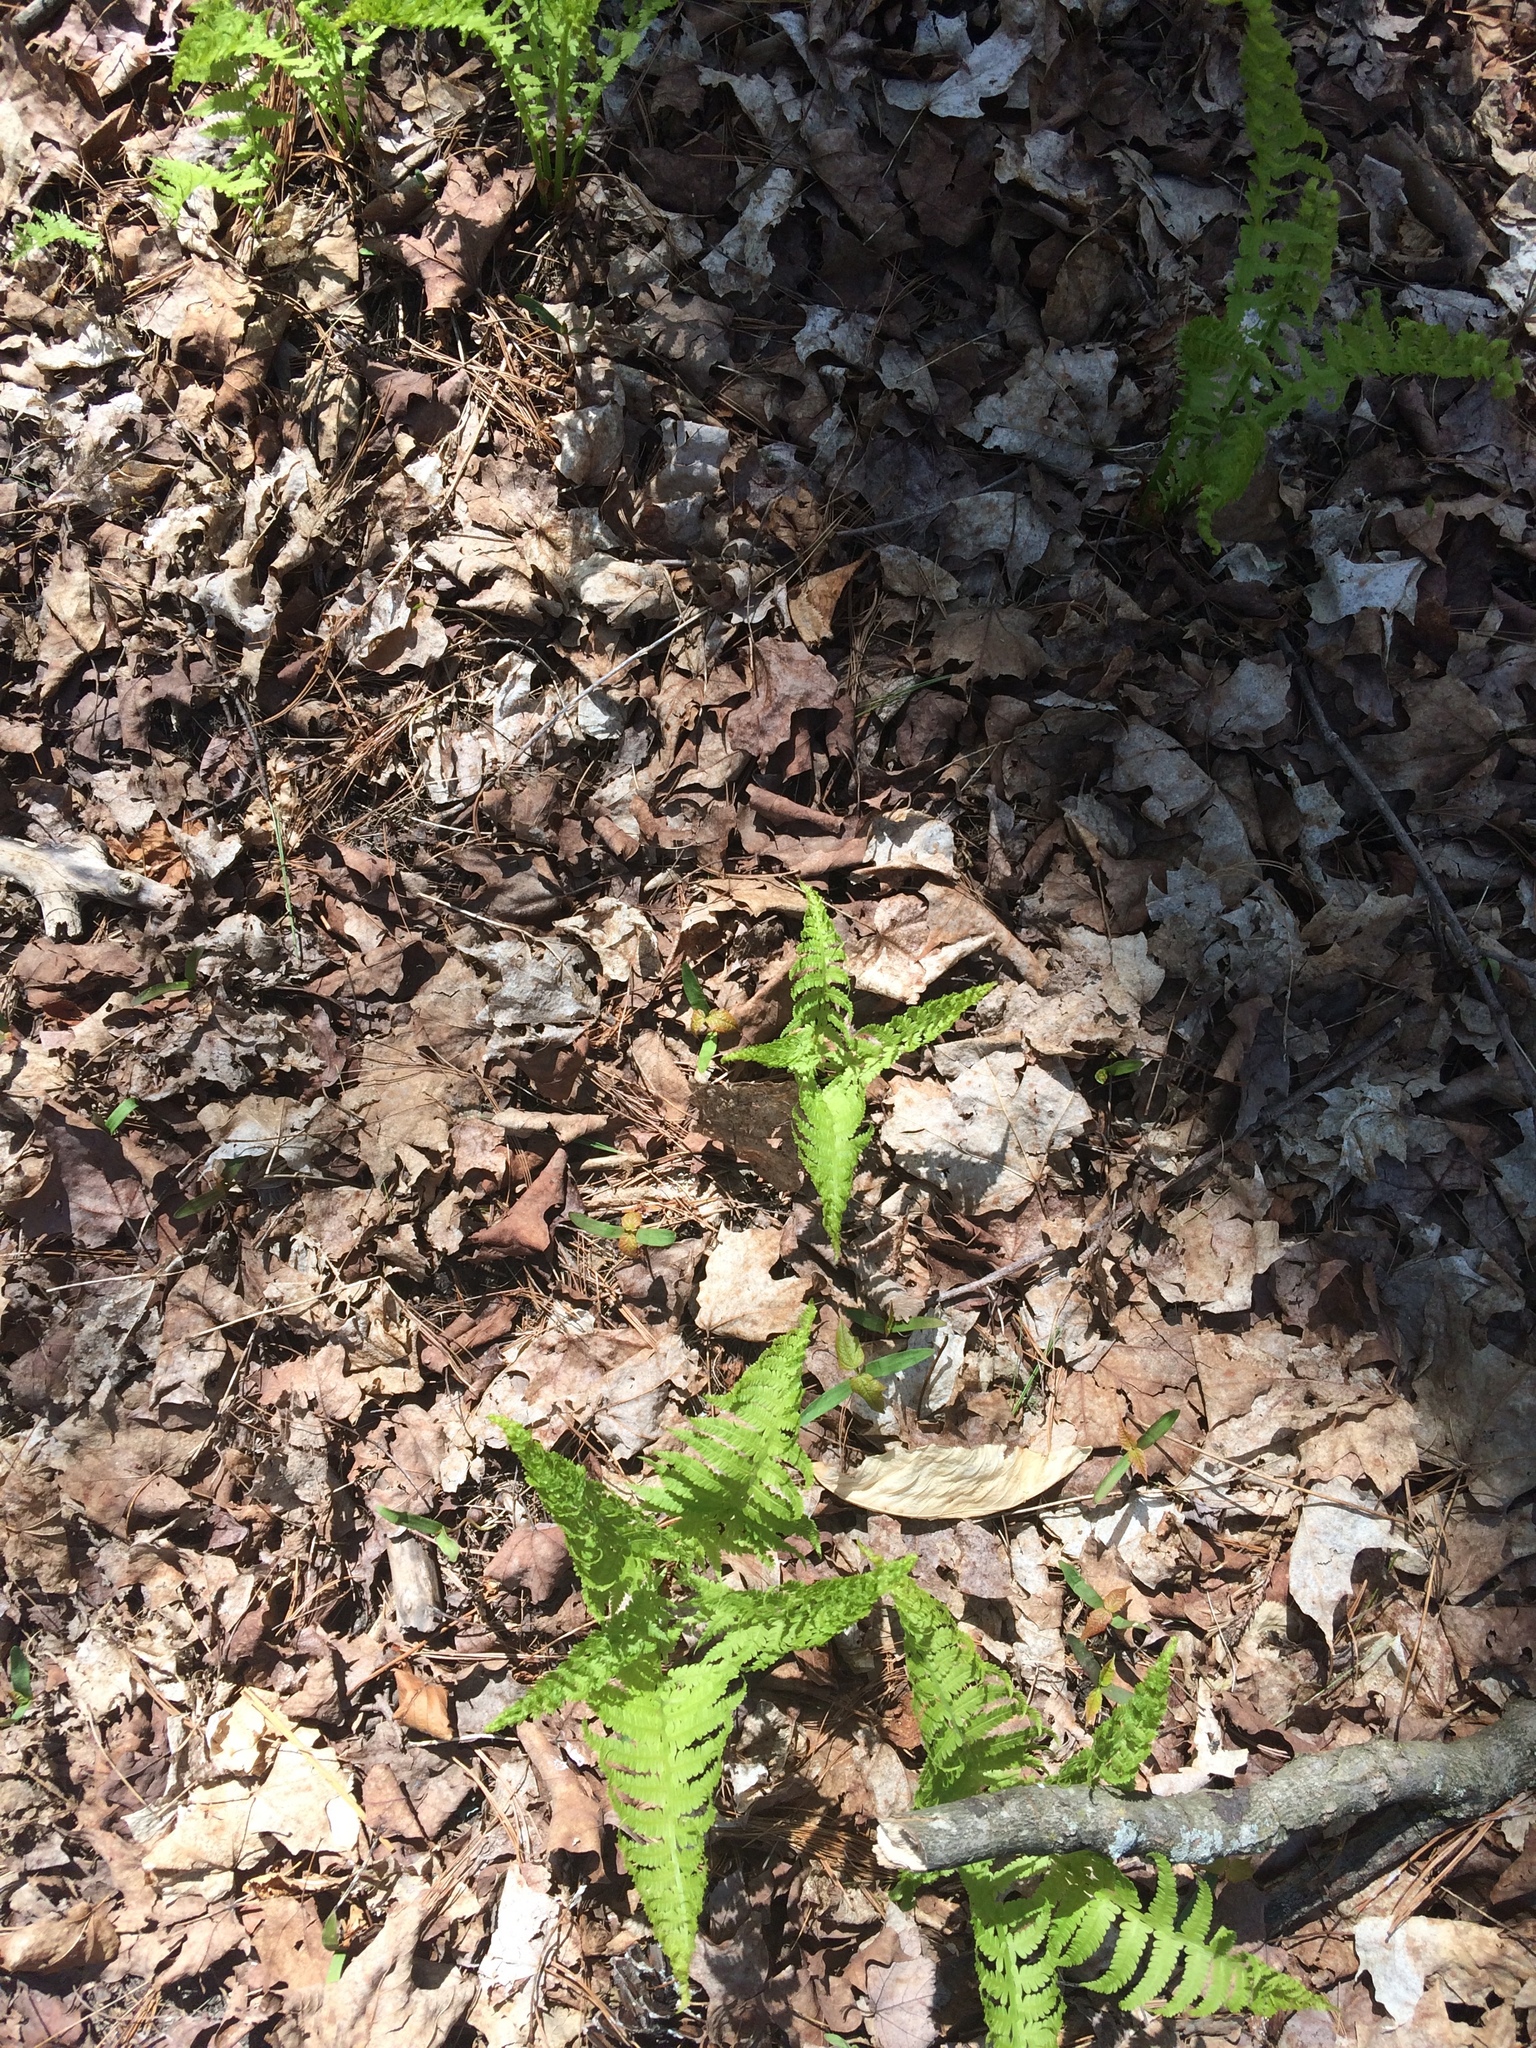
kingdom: Plantae
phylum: Tracheophyta
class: Polypodiopsida
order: Polypodiales
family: Onocleaceae
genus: Matteuccia
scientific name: Matteuccia struthiopteris
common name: Ostrich fern
